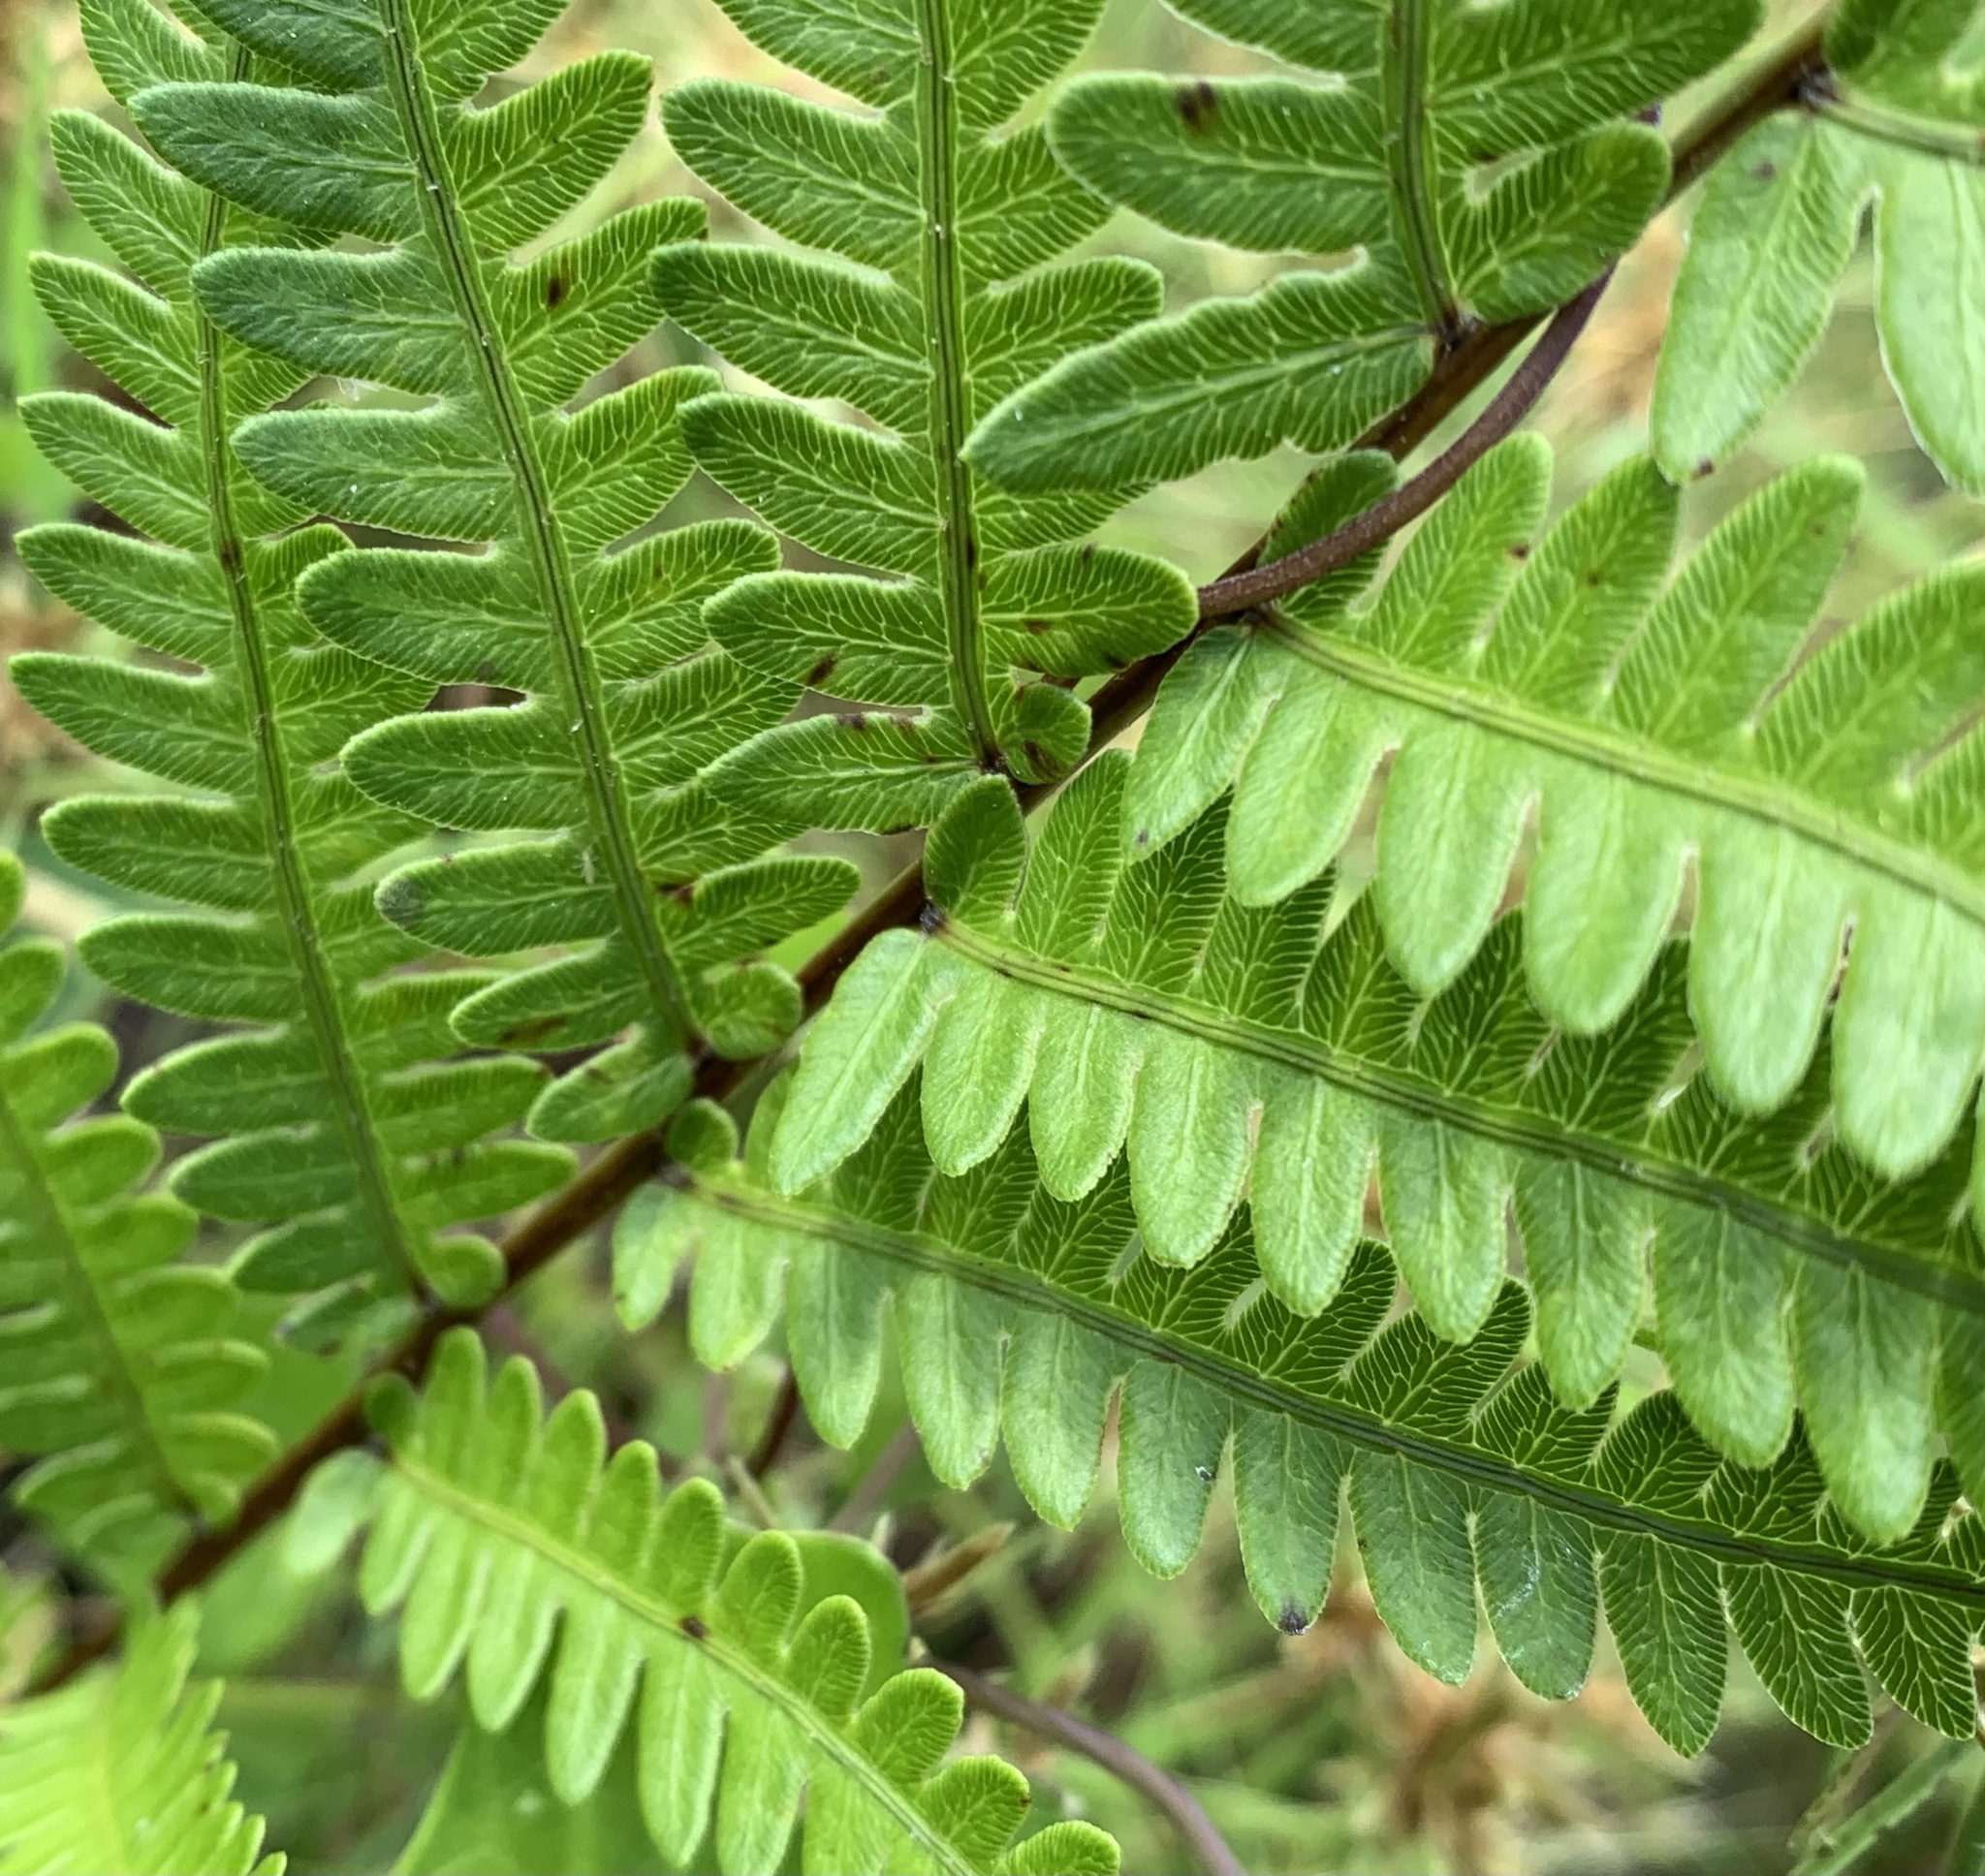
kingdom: Plantae
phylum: Tracheophyta
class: Polypodiopsida
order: Polypodiales
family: Blechnaceae
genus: Anchistea
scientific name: Anchistea virginica
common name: Virginia chain fern
